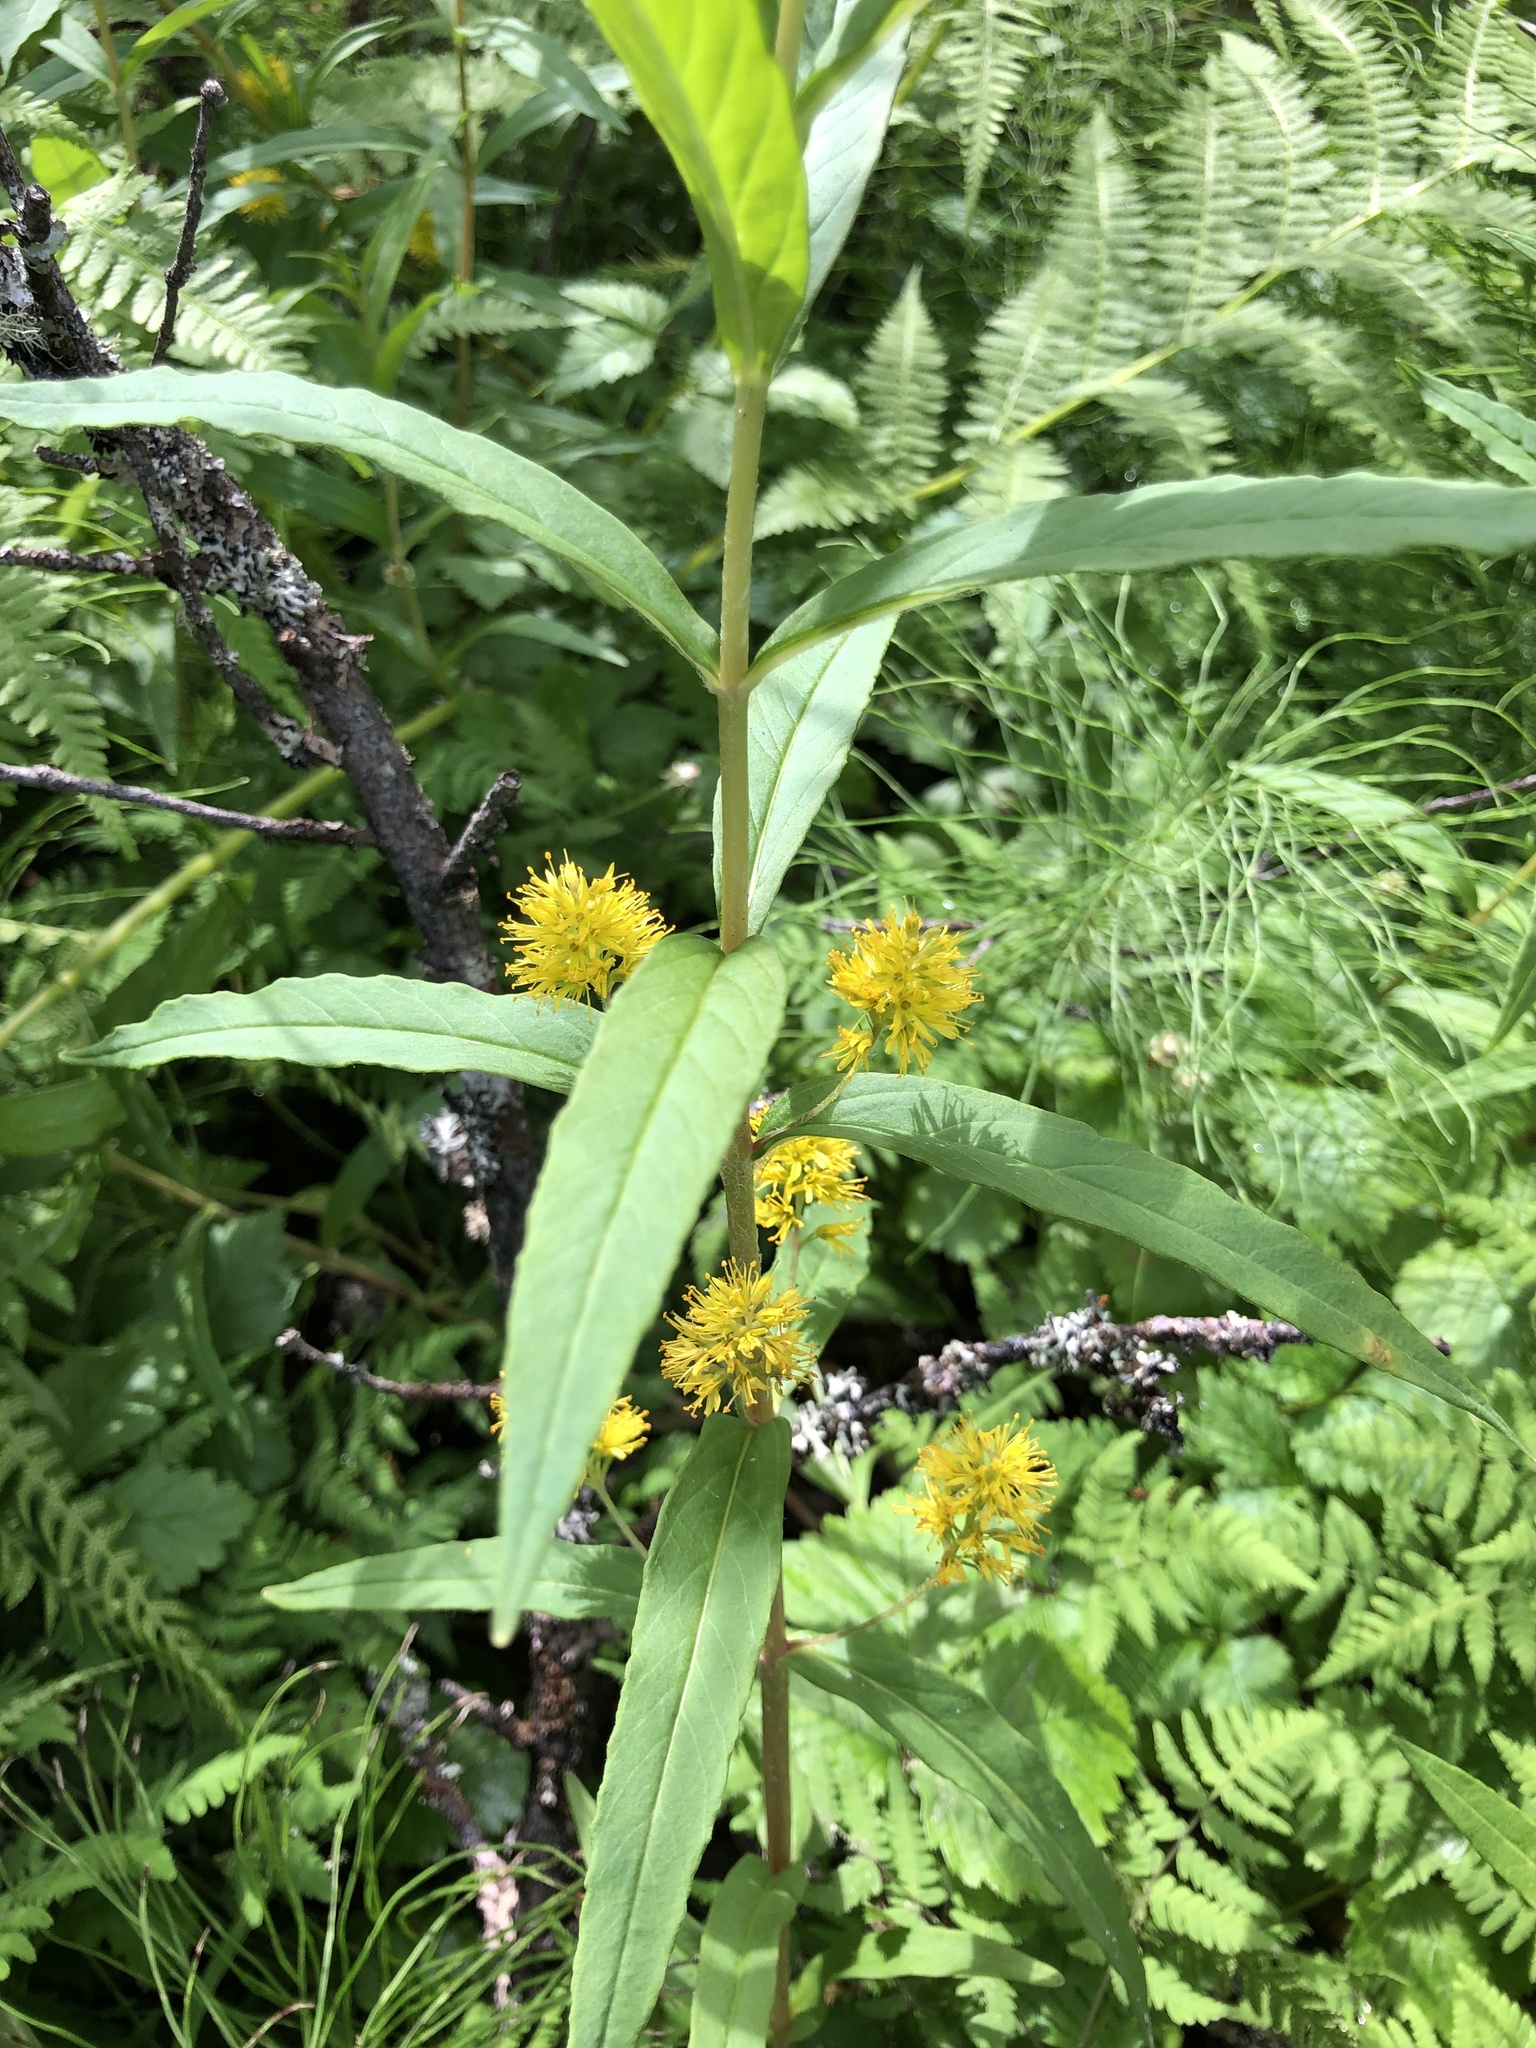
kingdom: Plantae
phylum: Tracheophyta
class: Magnoliopsida
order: Ericales
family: Primulaceae
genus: Lysimachia
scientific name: Lysimachia thyrsiflora
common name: Tufted loosestrife
